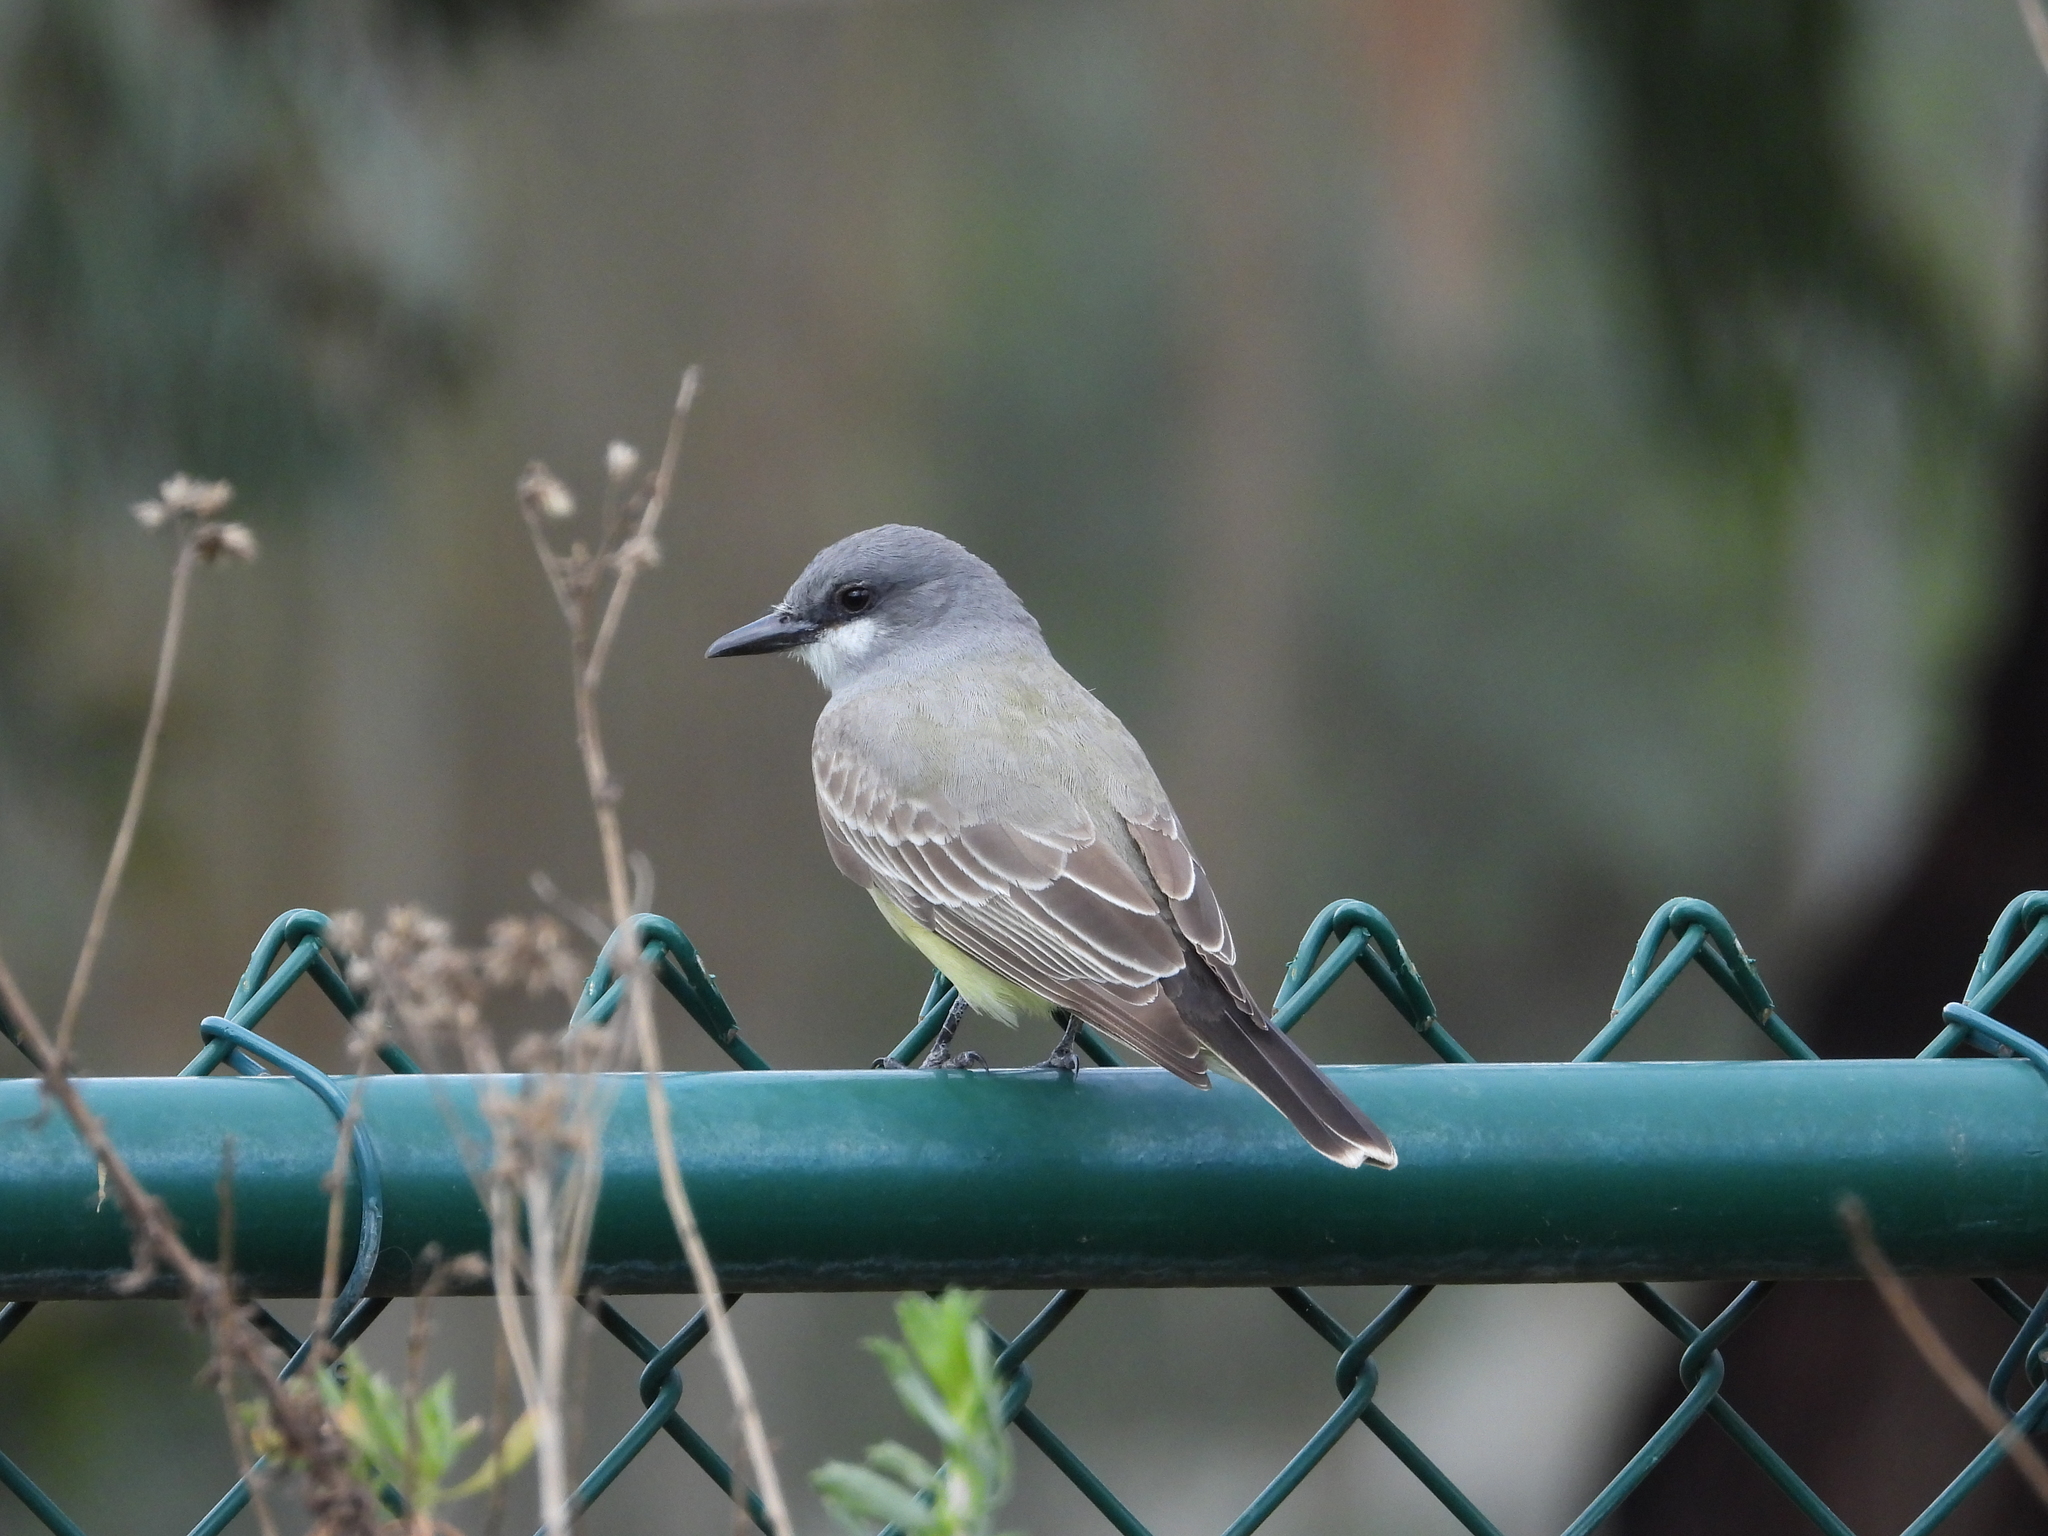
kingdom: Animalia
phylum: Chordata
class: Aves
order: Passeriformes
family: Tyrannidae
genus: Tyrannus
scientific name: Tyrannus vociferans
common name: Cassin's kingbird
